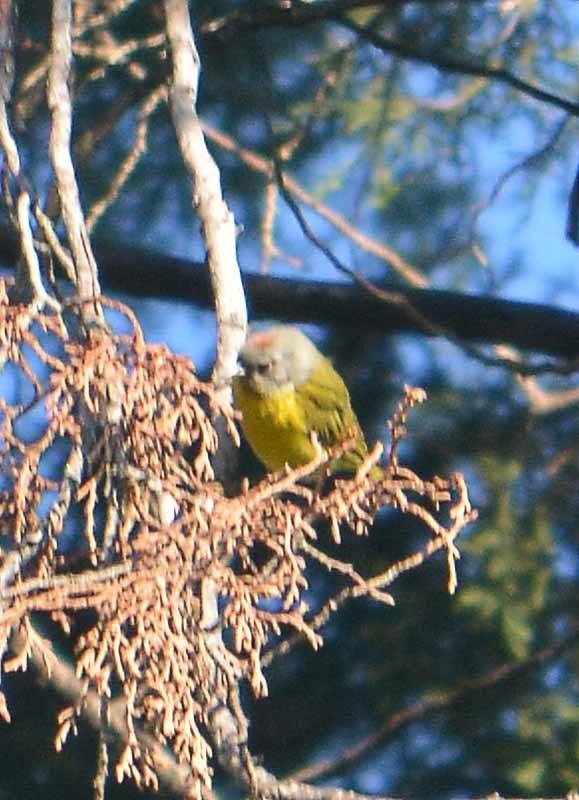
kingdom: Animalia
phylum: Chordata
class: Aves
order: Passeriformes
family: Parulidae
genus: Leiothlypis
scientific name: Leiothlypis ruficapilla
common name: Nashville warbler
